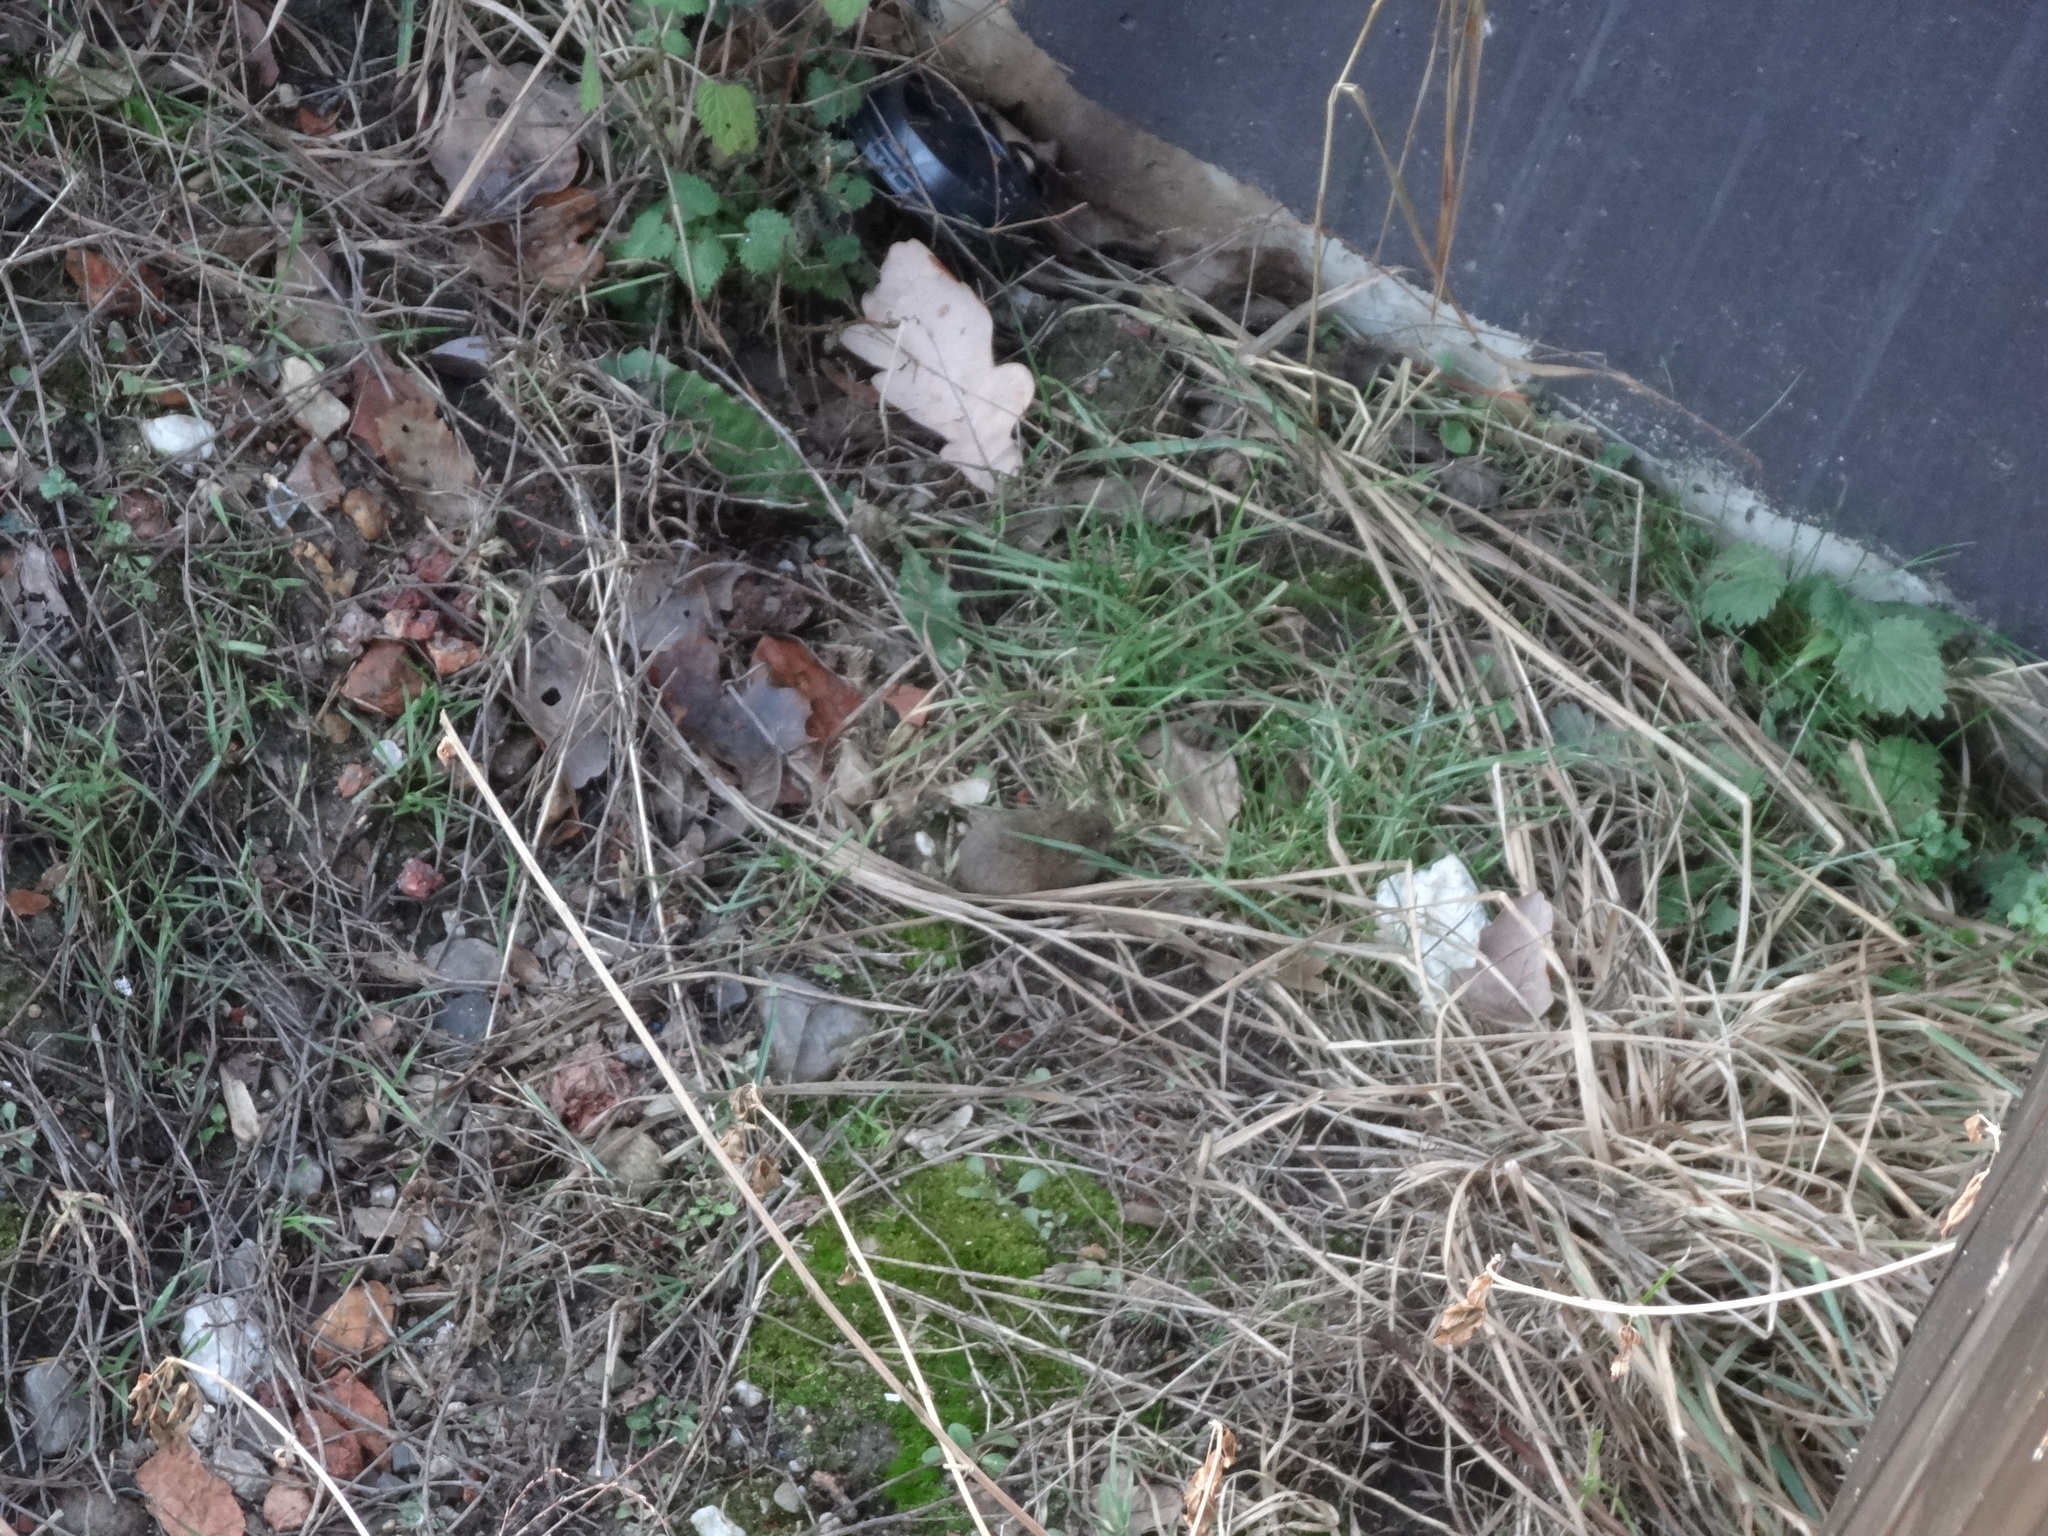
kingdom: Animalia
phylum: Chordata
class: Mammalia
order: Rodentia
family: Muridae
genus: Mus
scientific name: Mus musculus
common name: House mouse
